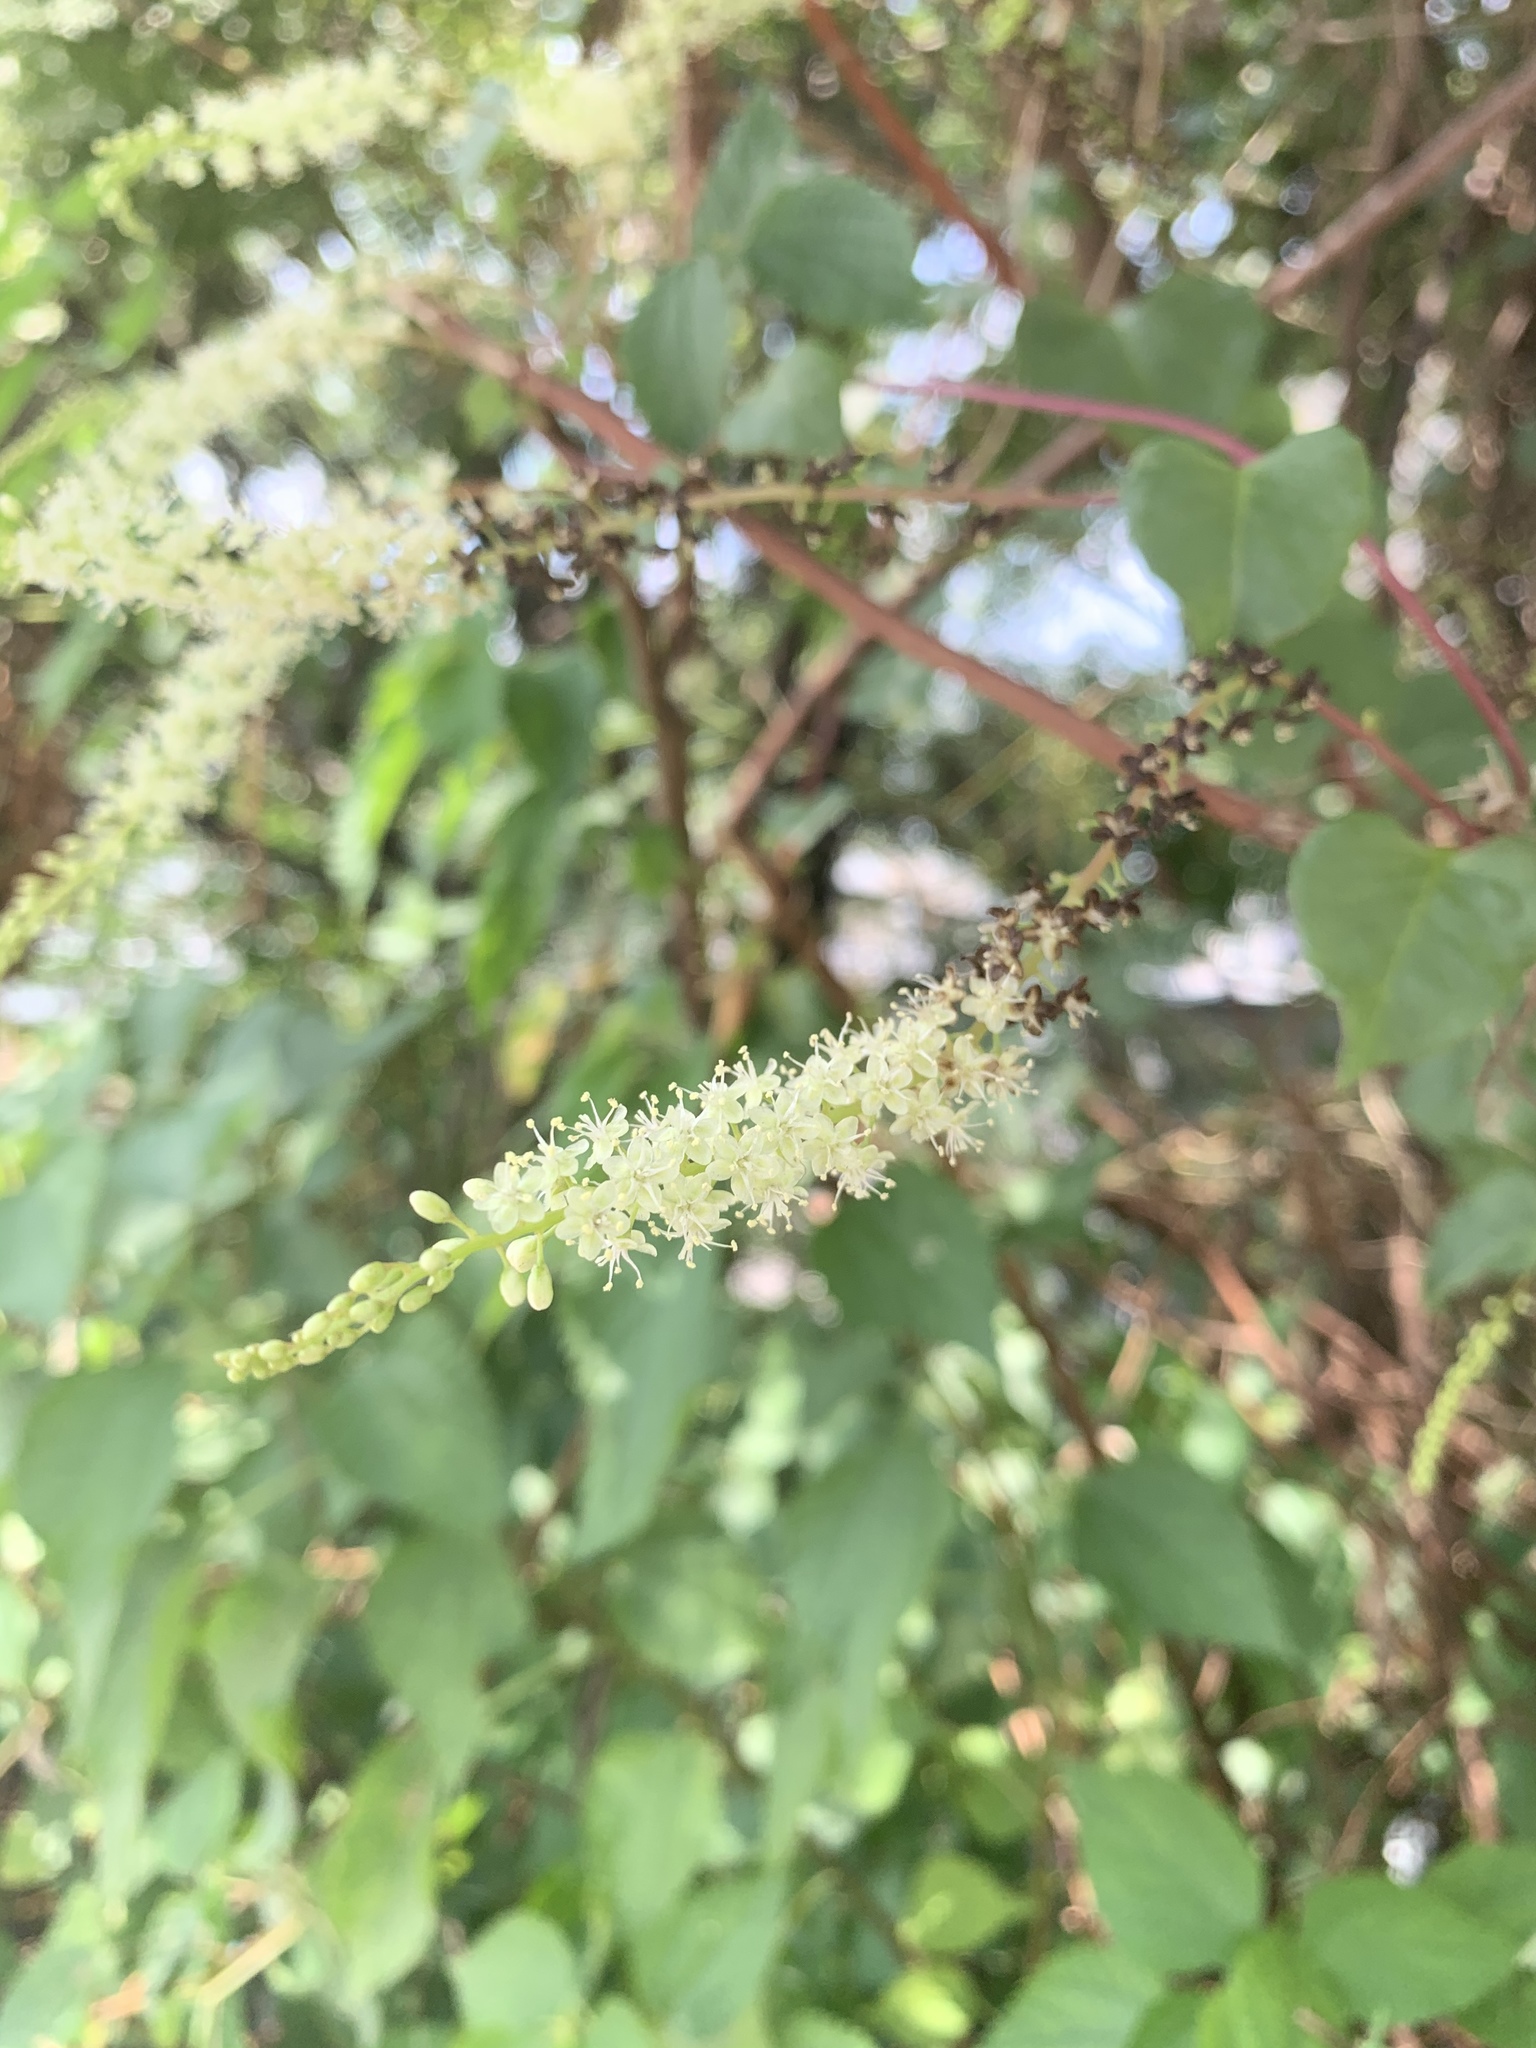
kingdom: Plantae
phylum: Tracheophyta
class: Magnoliopsida
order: Caryophyllales
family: Basellaceae
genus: Anredera
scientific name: Anredera cordifolia
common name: Heartleaf madeiravine
